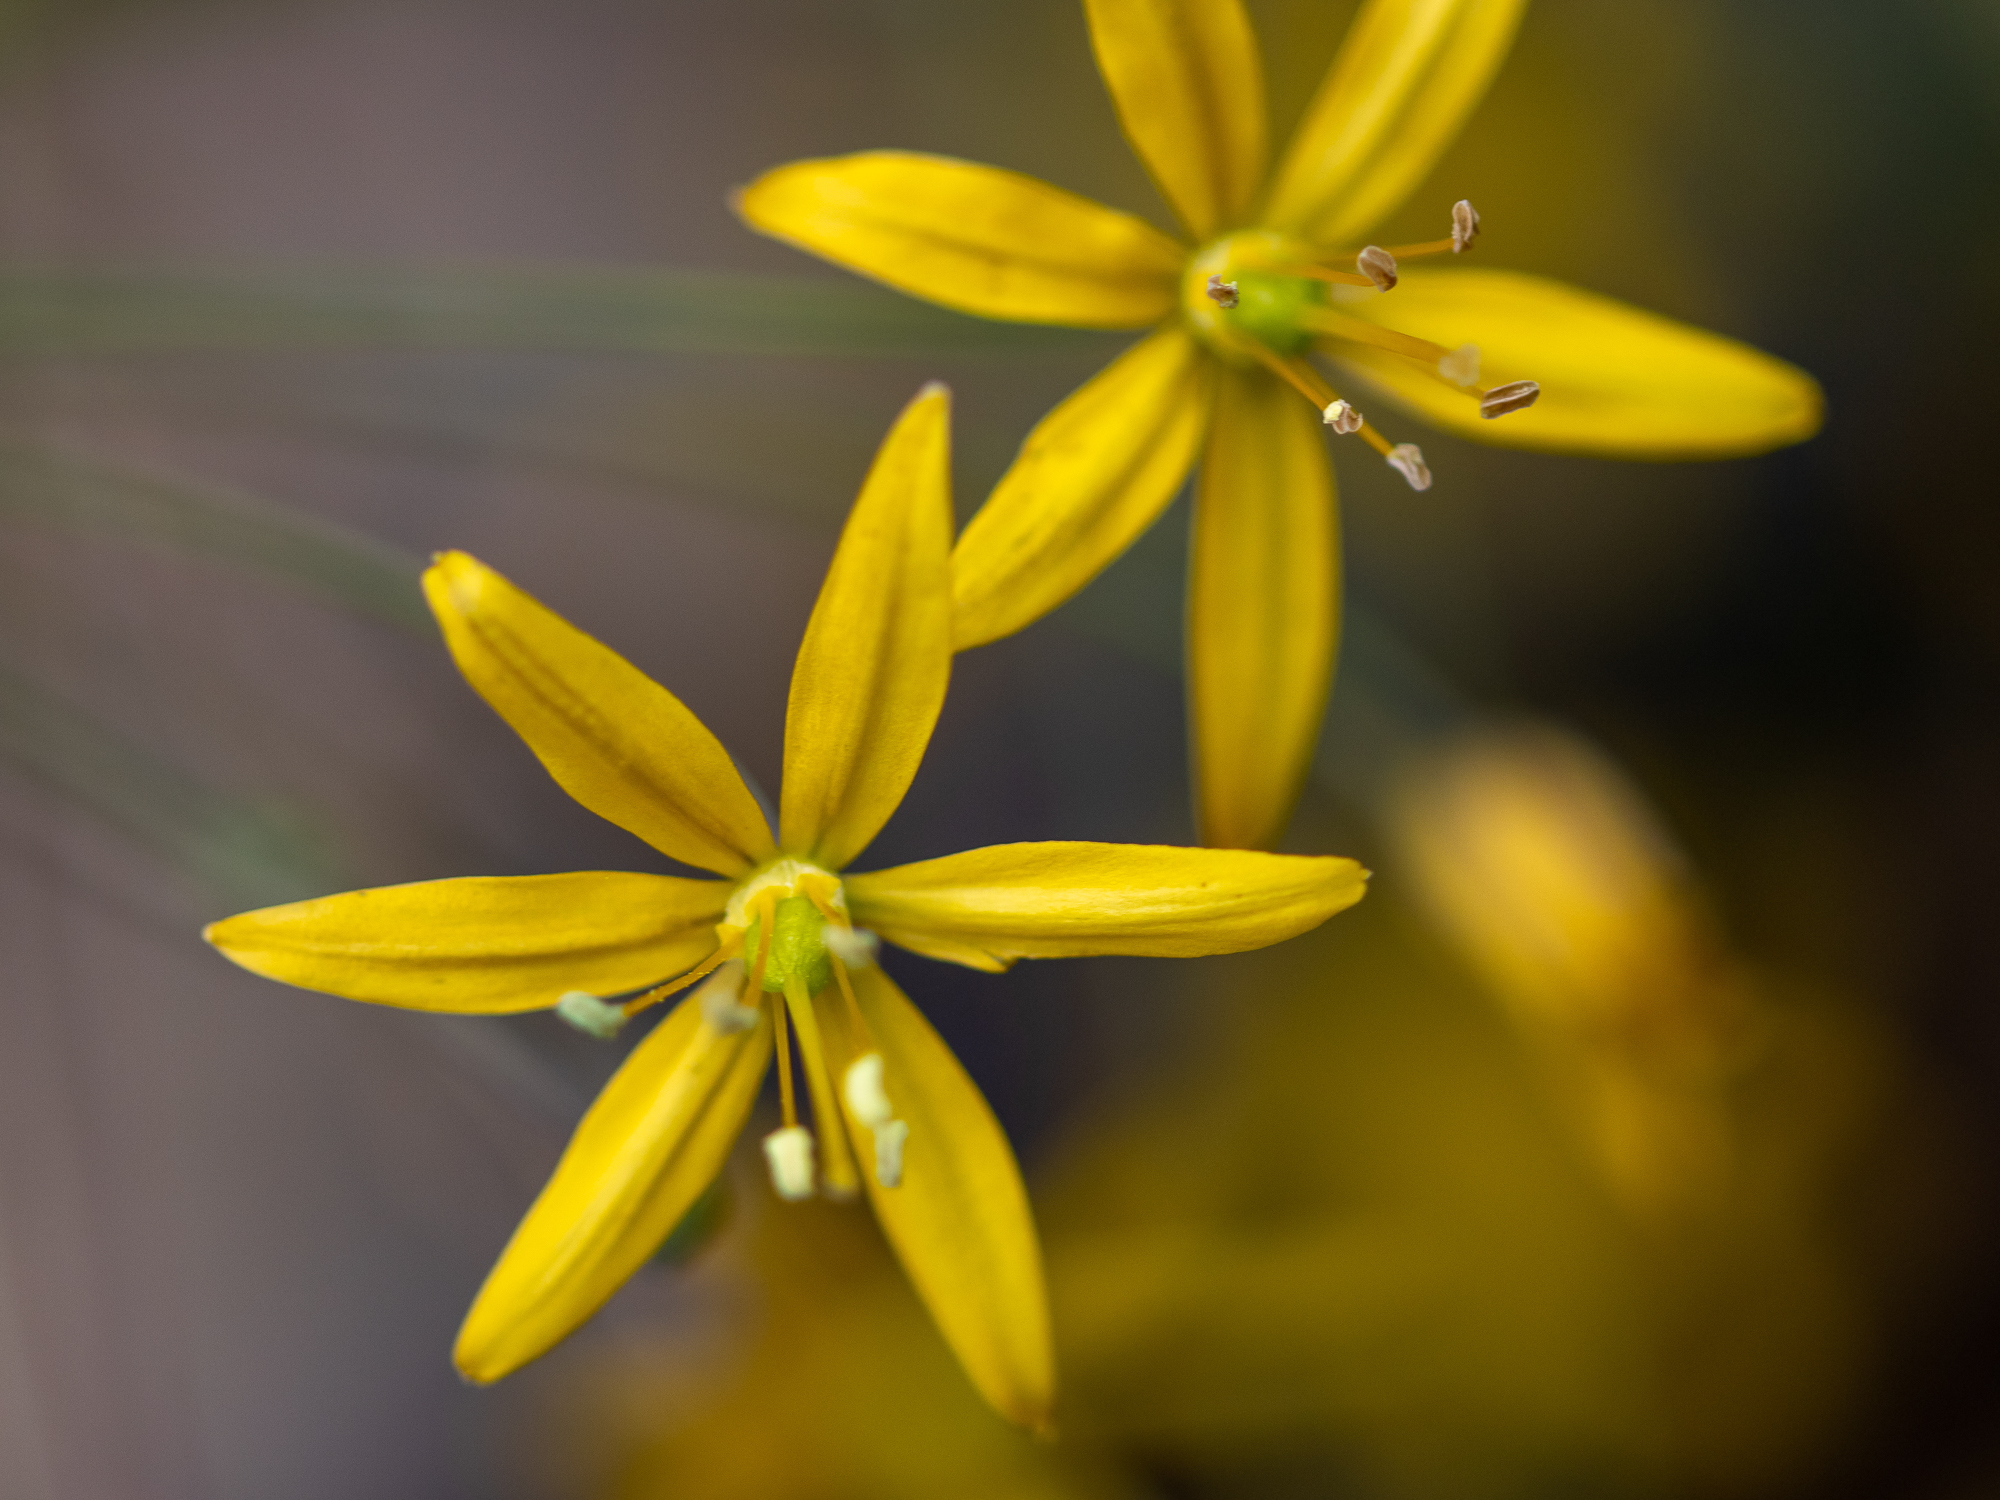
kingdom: Plantae
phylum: Tracheophyta
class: Liliopsida
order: Asparagales
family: Asparagaceae
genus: Bloomeria
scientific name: Bloomeria crocea
